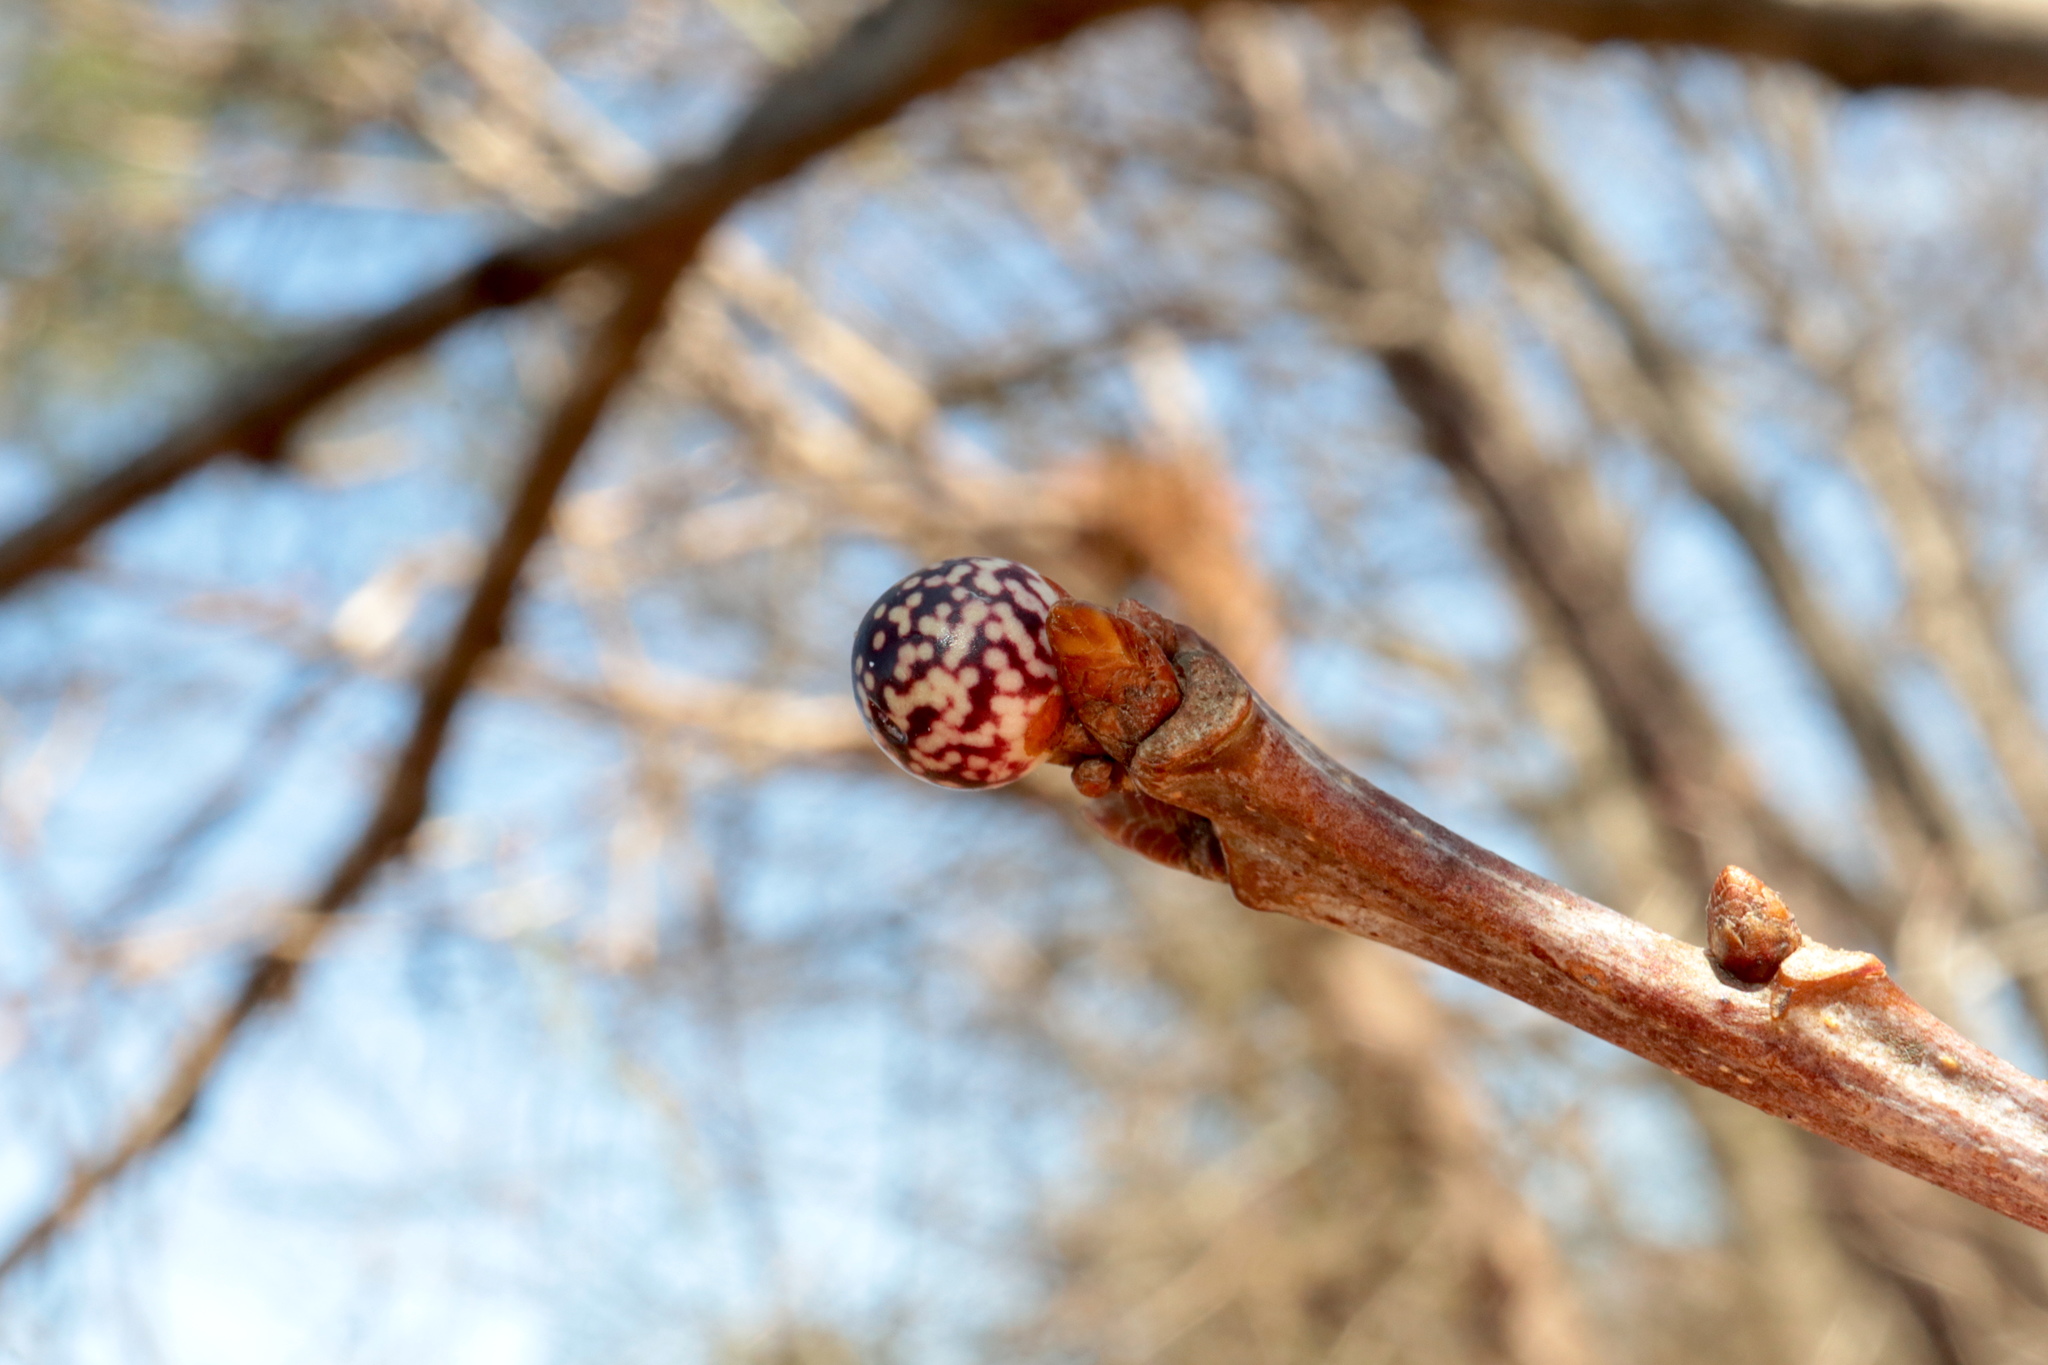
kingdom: Animalia
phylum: Arthropoda
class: Insecta
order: Hymenoptera
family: Cynipidae
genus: Andricus
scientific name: Andricus
